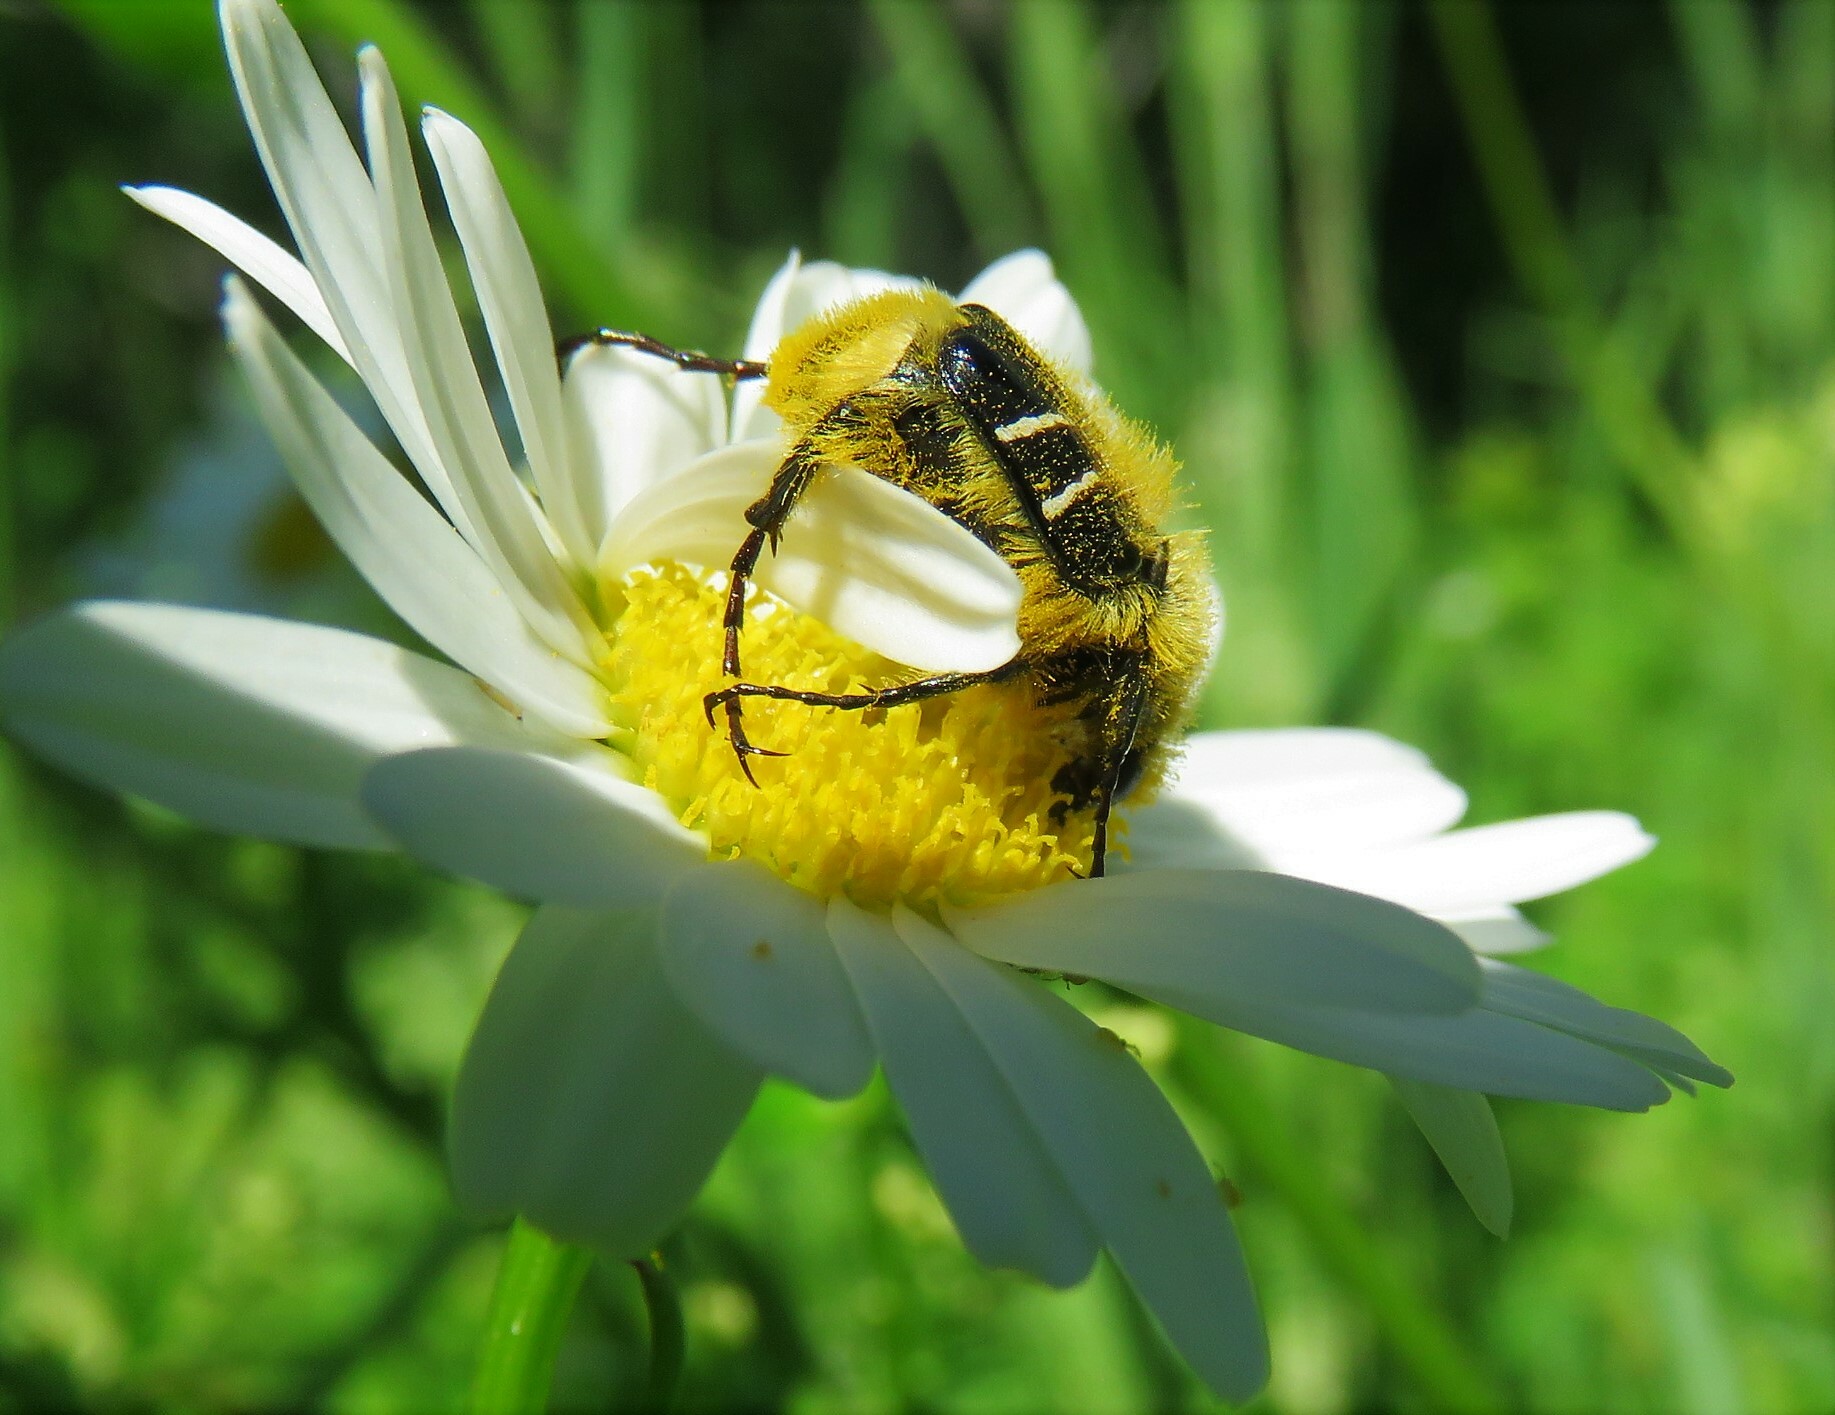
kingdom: Animalia
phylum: Arthropoda
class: Insecta
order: Coleoptera
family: Scarabaeidae
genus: Trichiotinus
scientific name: Trichiotinus assimilis
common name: Bee-mimic beetle
